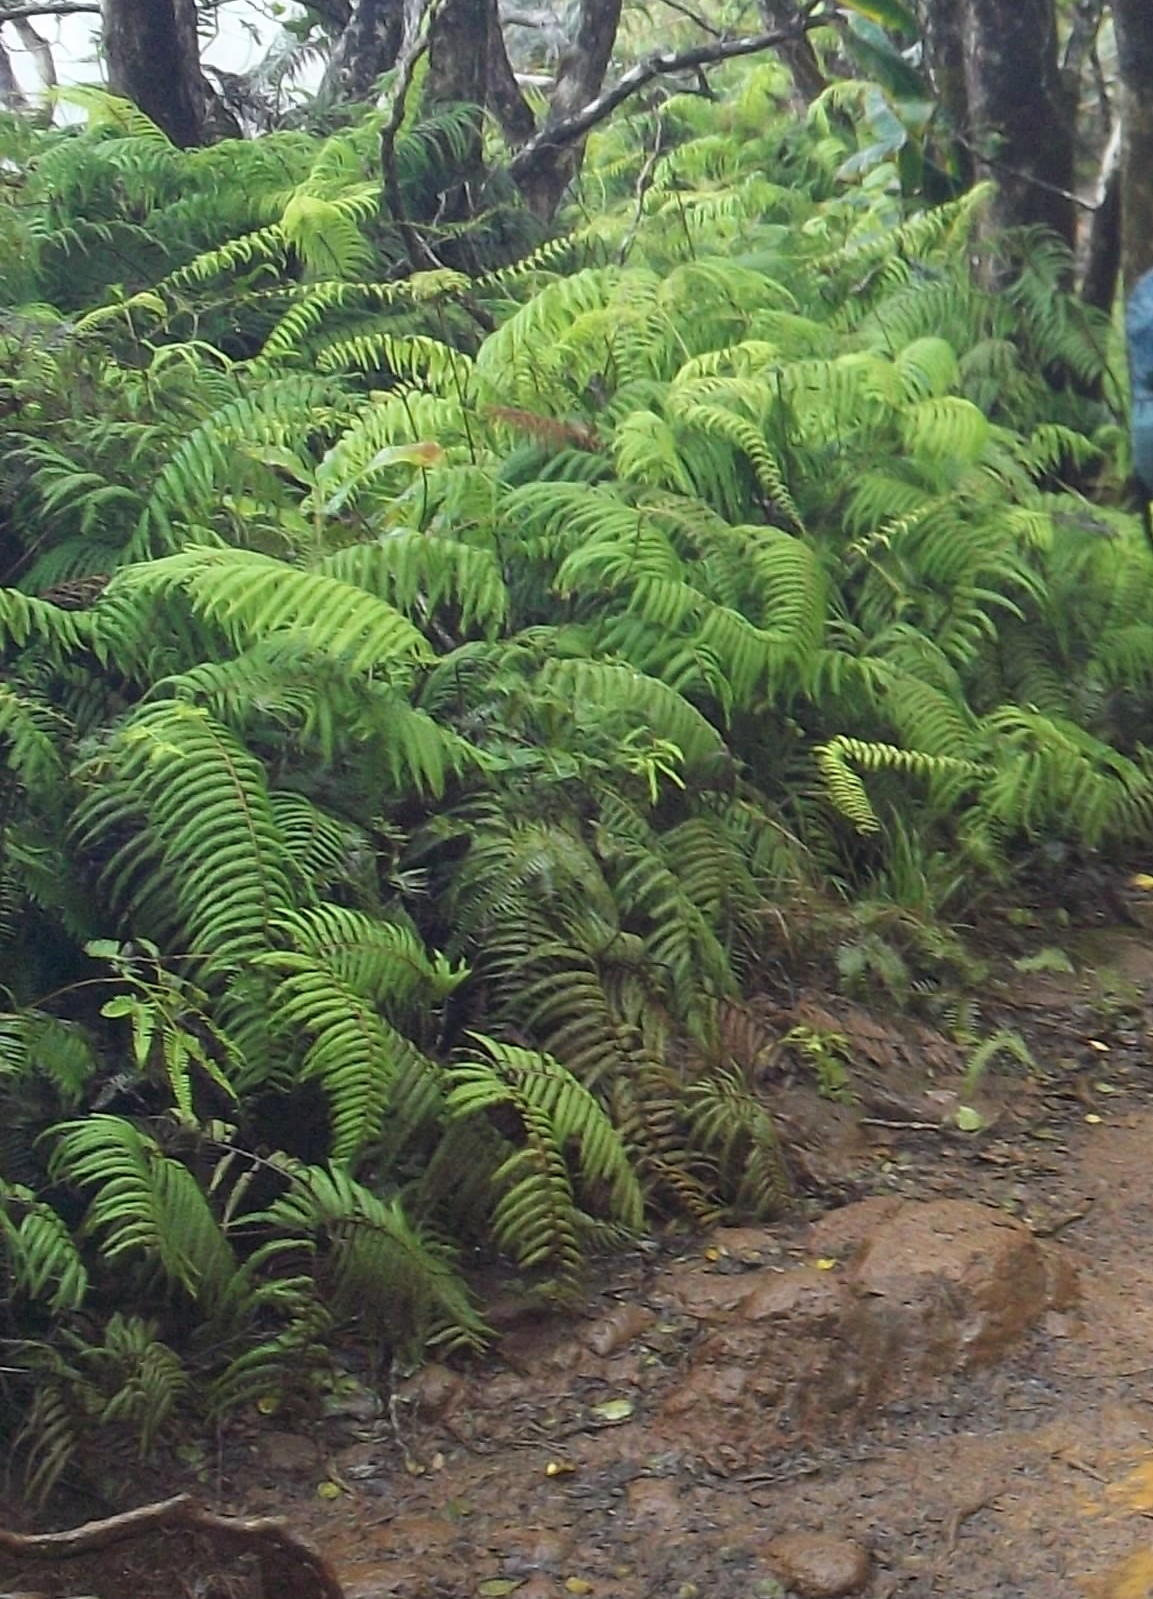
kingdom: Plantae
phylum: Tracheophyta
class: Polypodiopsida
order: Gleicheniales
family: Gleicheniaceae
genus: Diplopterygium
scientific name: Diplopterygium pinnatum
